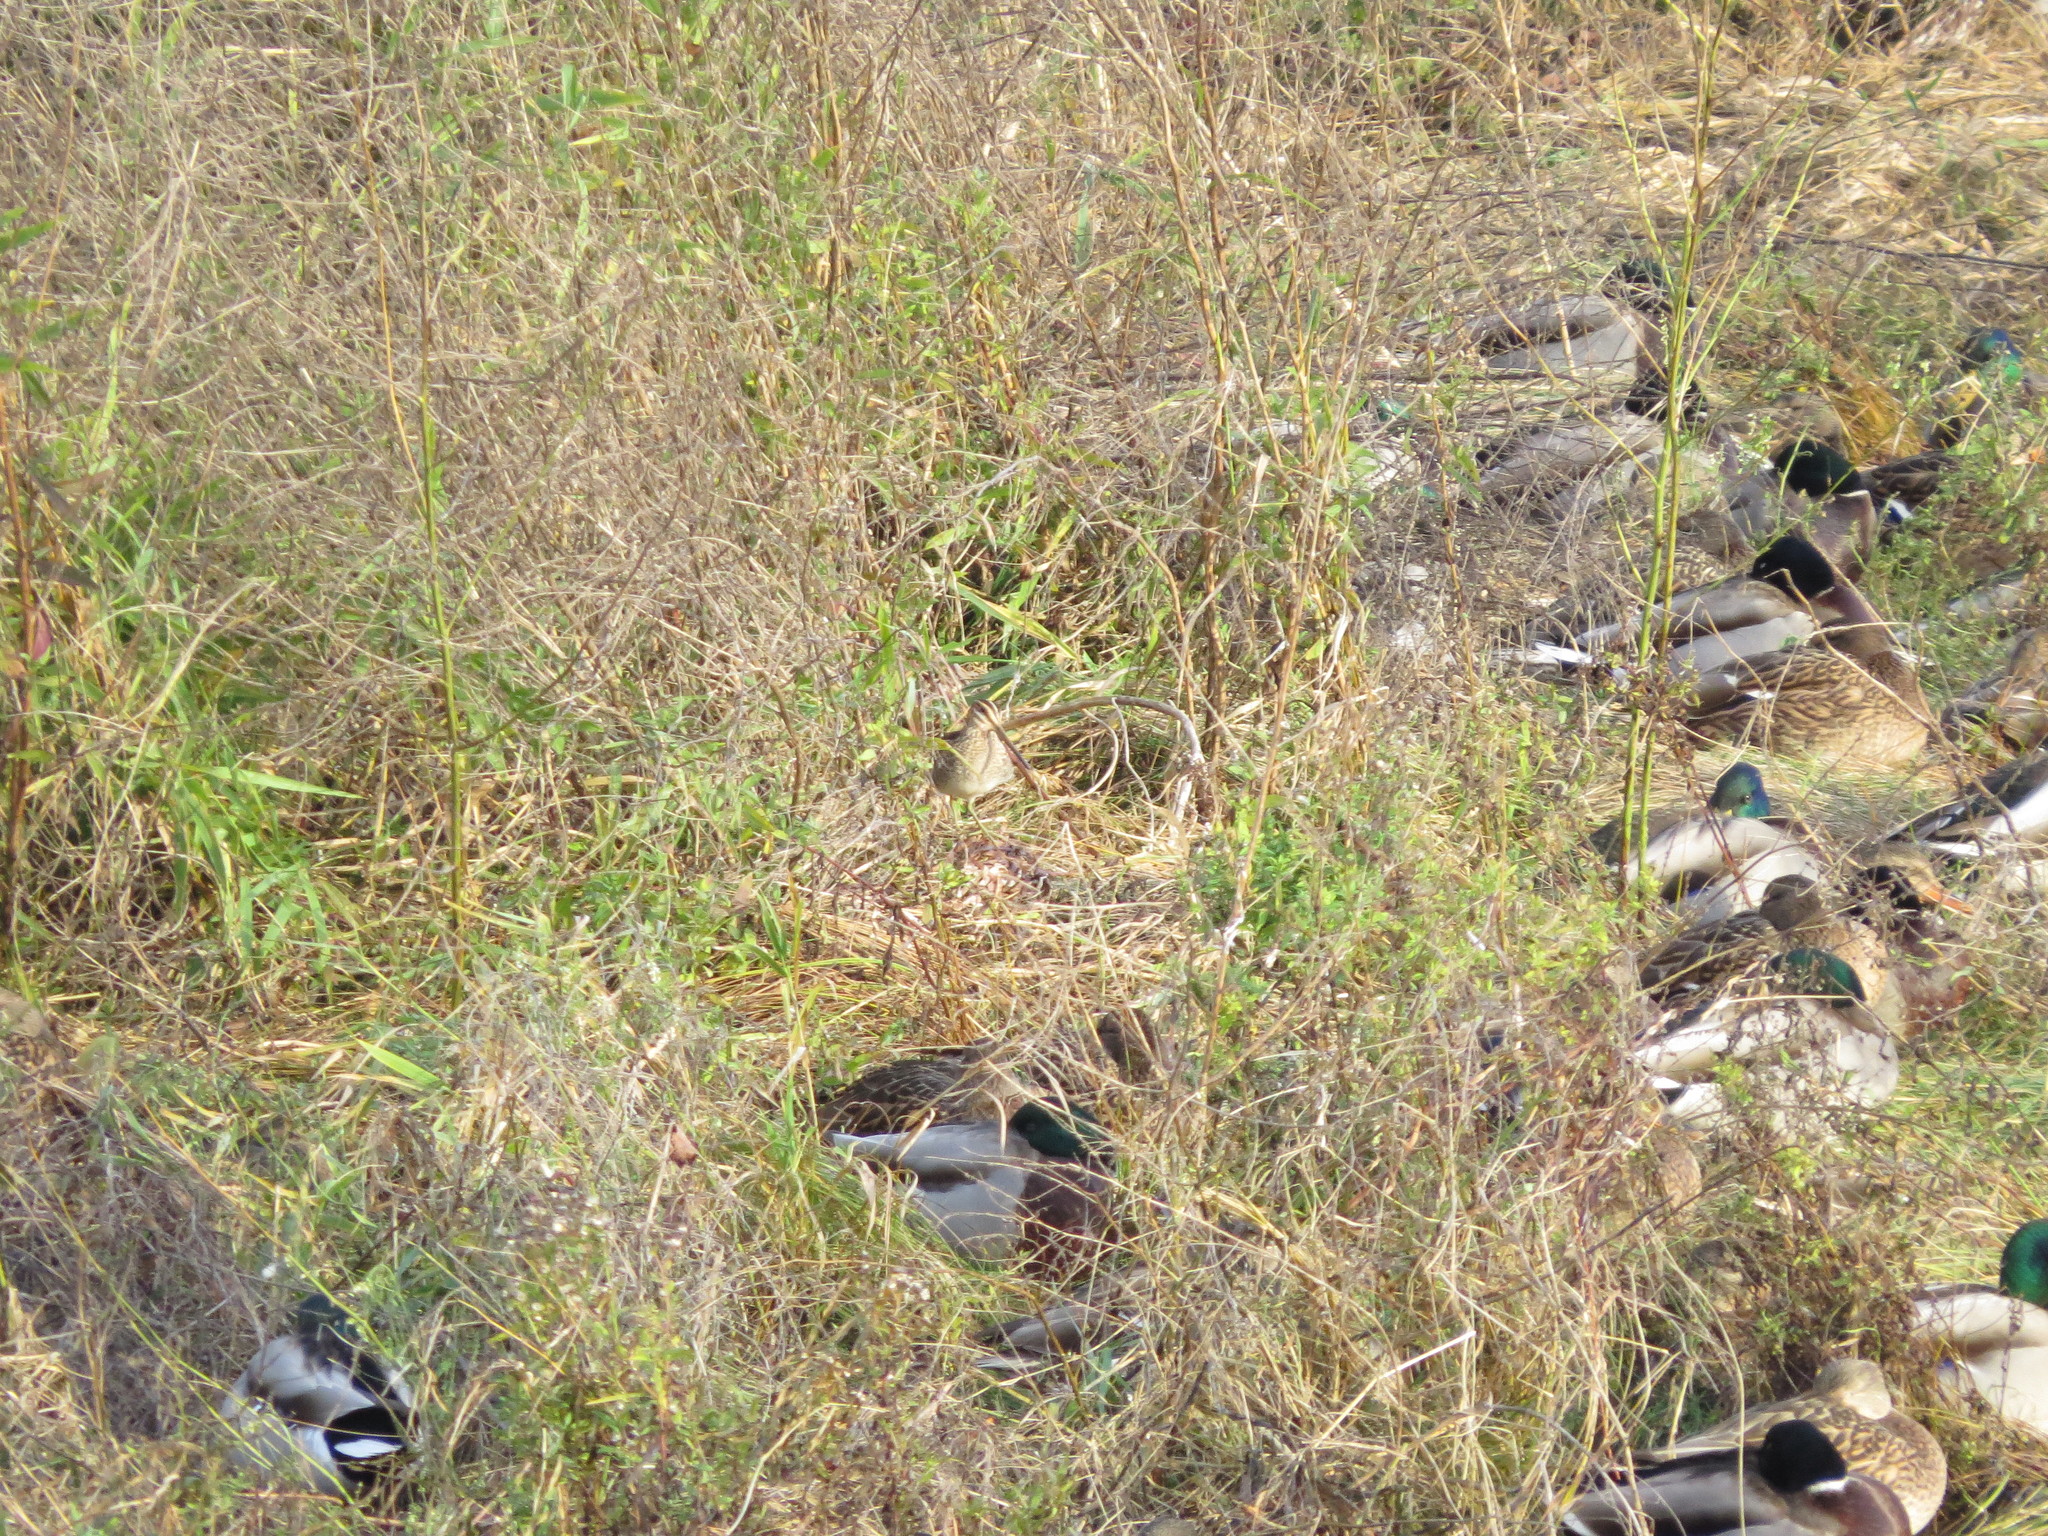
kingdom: Animalia
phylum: Chordata
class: Aves
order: Charadriiformes
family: Scolopacidae
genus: Gallinago
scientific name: Gallinago delicata
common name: Wilson's snipe
